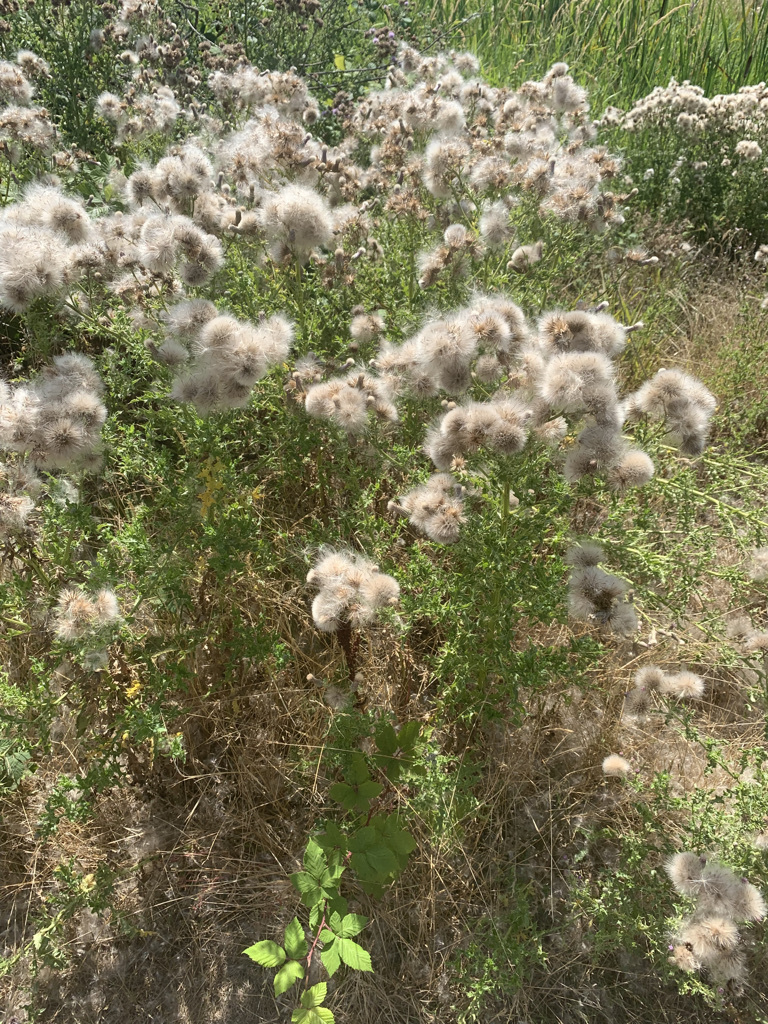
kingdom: Plantae
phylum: Tracheophyta
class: Magnoliopsida
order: Asterales
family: Asteraceae
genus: Cirsium
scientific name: Cirsium arvense
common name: Creeping thistle
